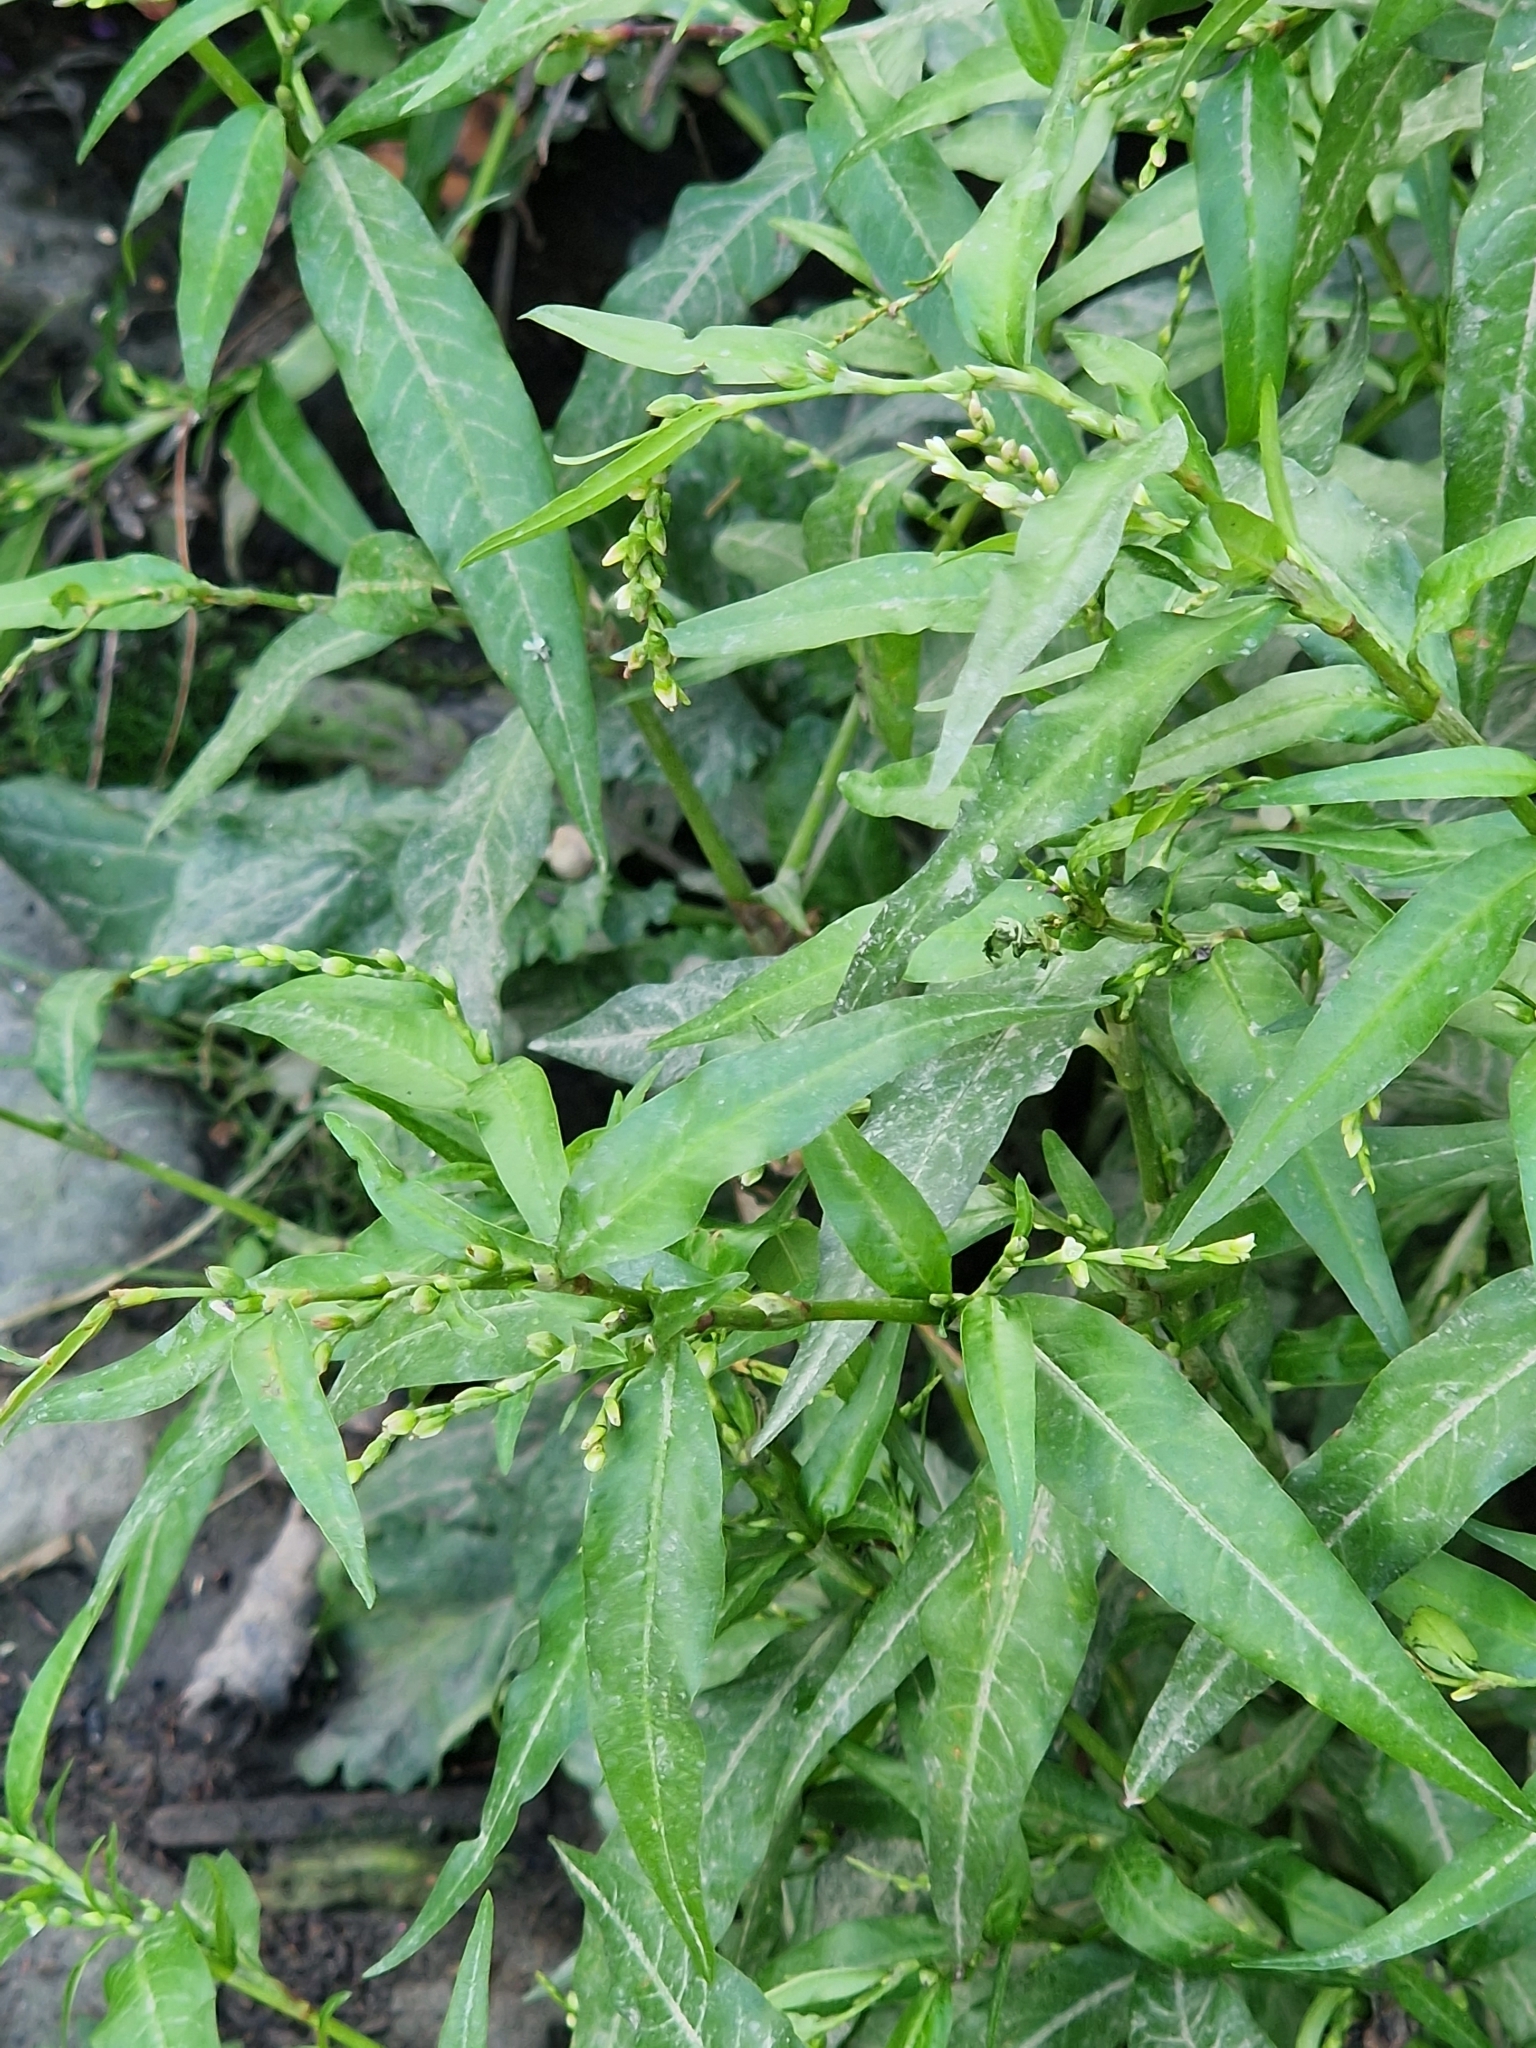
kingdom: Plantae
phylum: Tracheophyta
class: Magnoliopsida
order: Caryophyllales
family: Polygonaceae
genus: Persicaria
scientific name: Persicaria hydropiper
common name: Water-pepper
